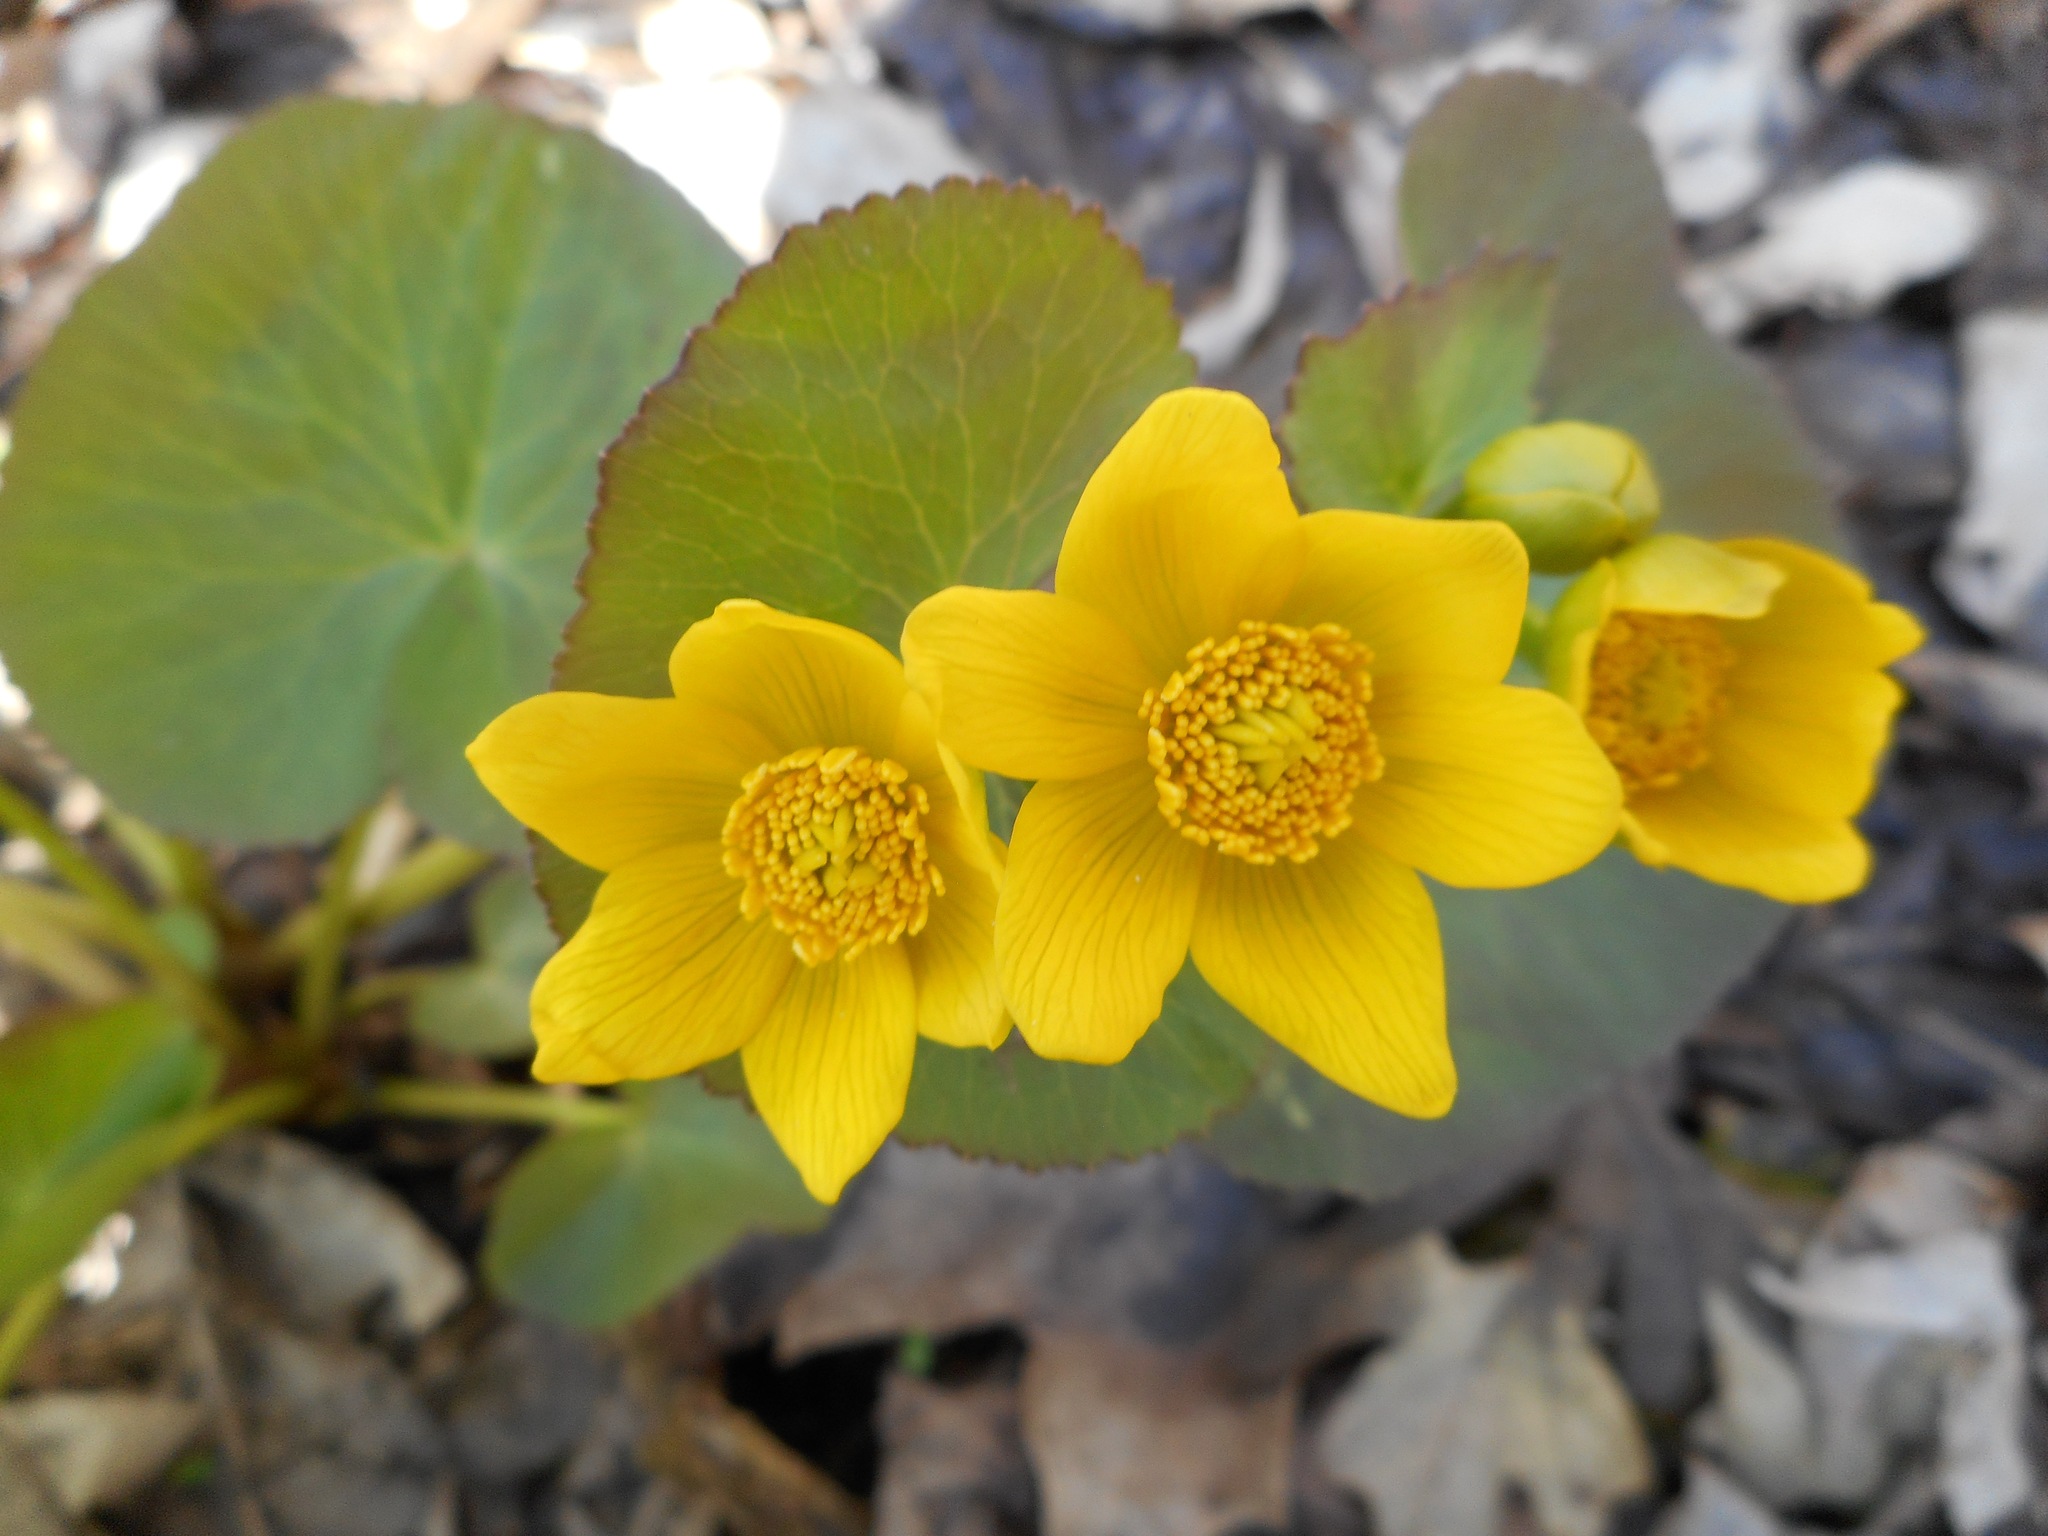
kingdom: Plantae
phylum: Tracheophyta
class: Magnoliopsida
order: Ranunculales
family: Ranunculaceae
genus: Caltha
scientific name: Caltha palustris
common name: Marsh marigold
